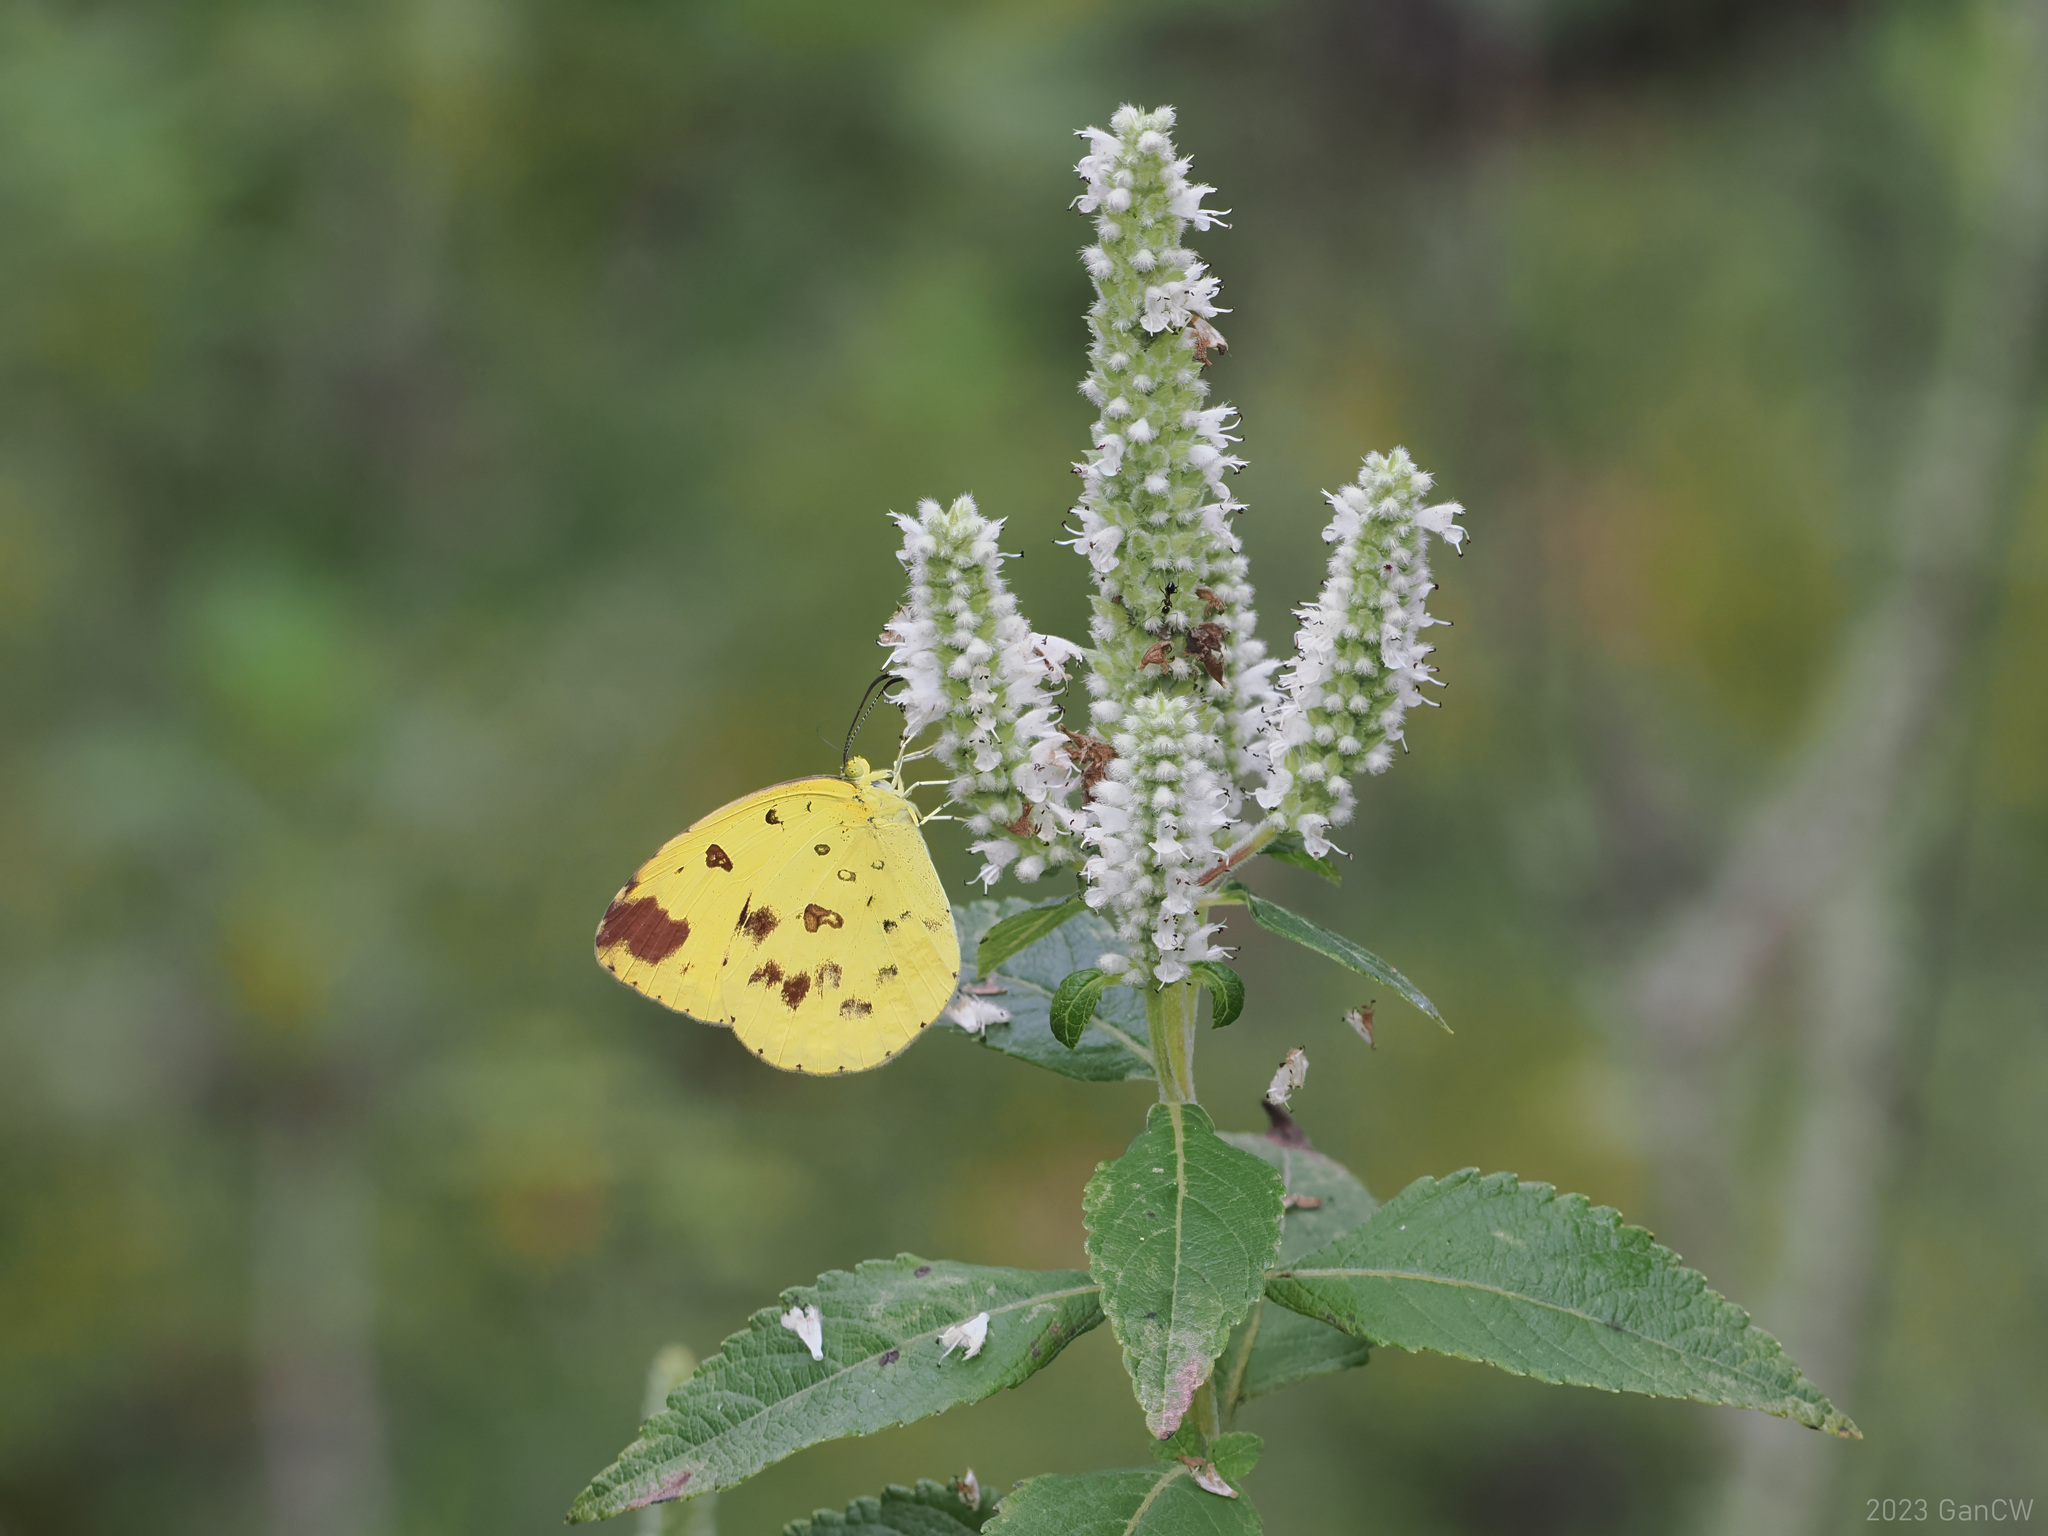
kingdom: Animalia
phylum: Arthropoda
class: Insecta
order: Lepidoptera
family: Pieridae
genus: Eurema
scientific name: Eurema hecabe
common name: Pale grass yellow
